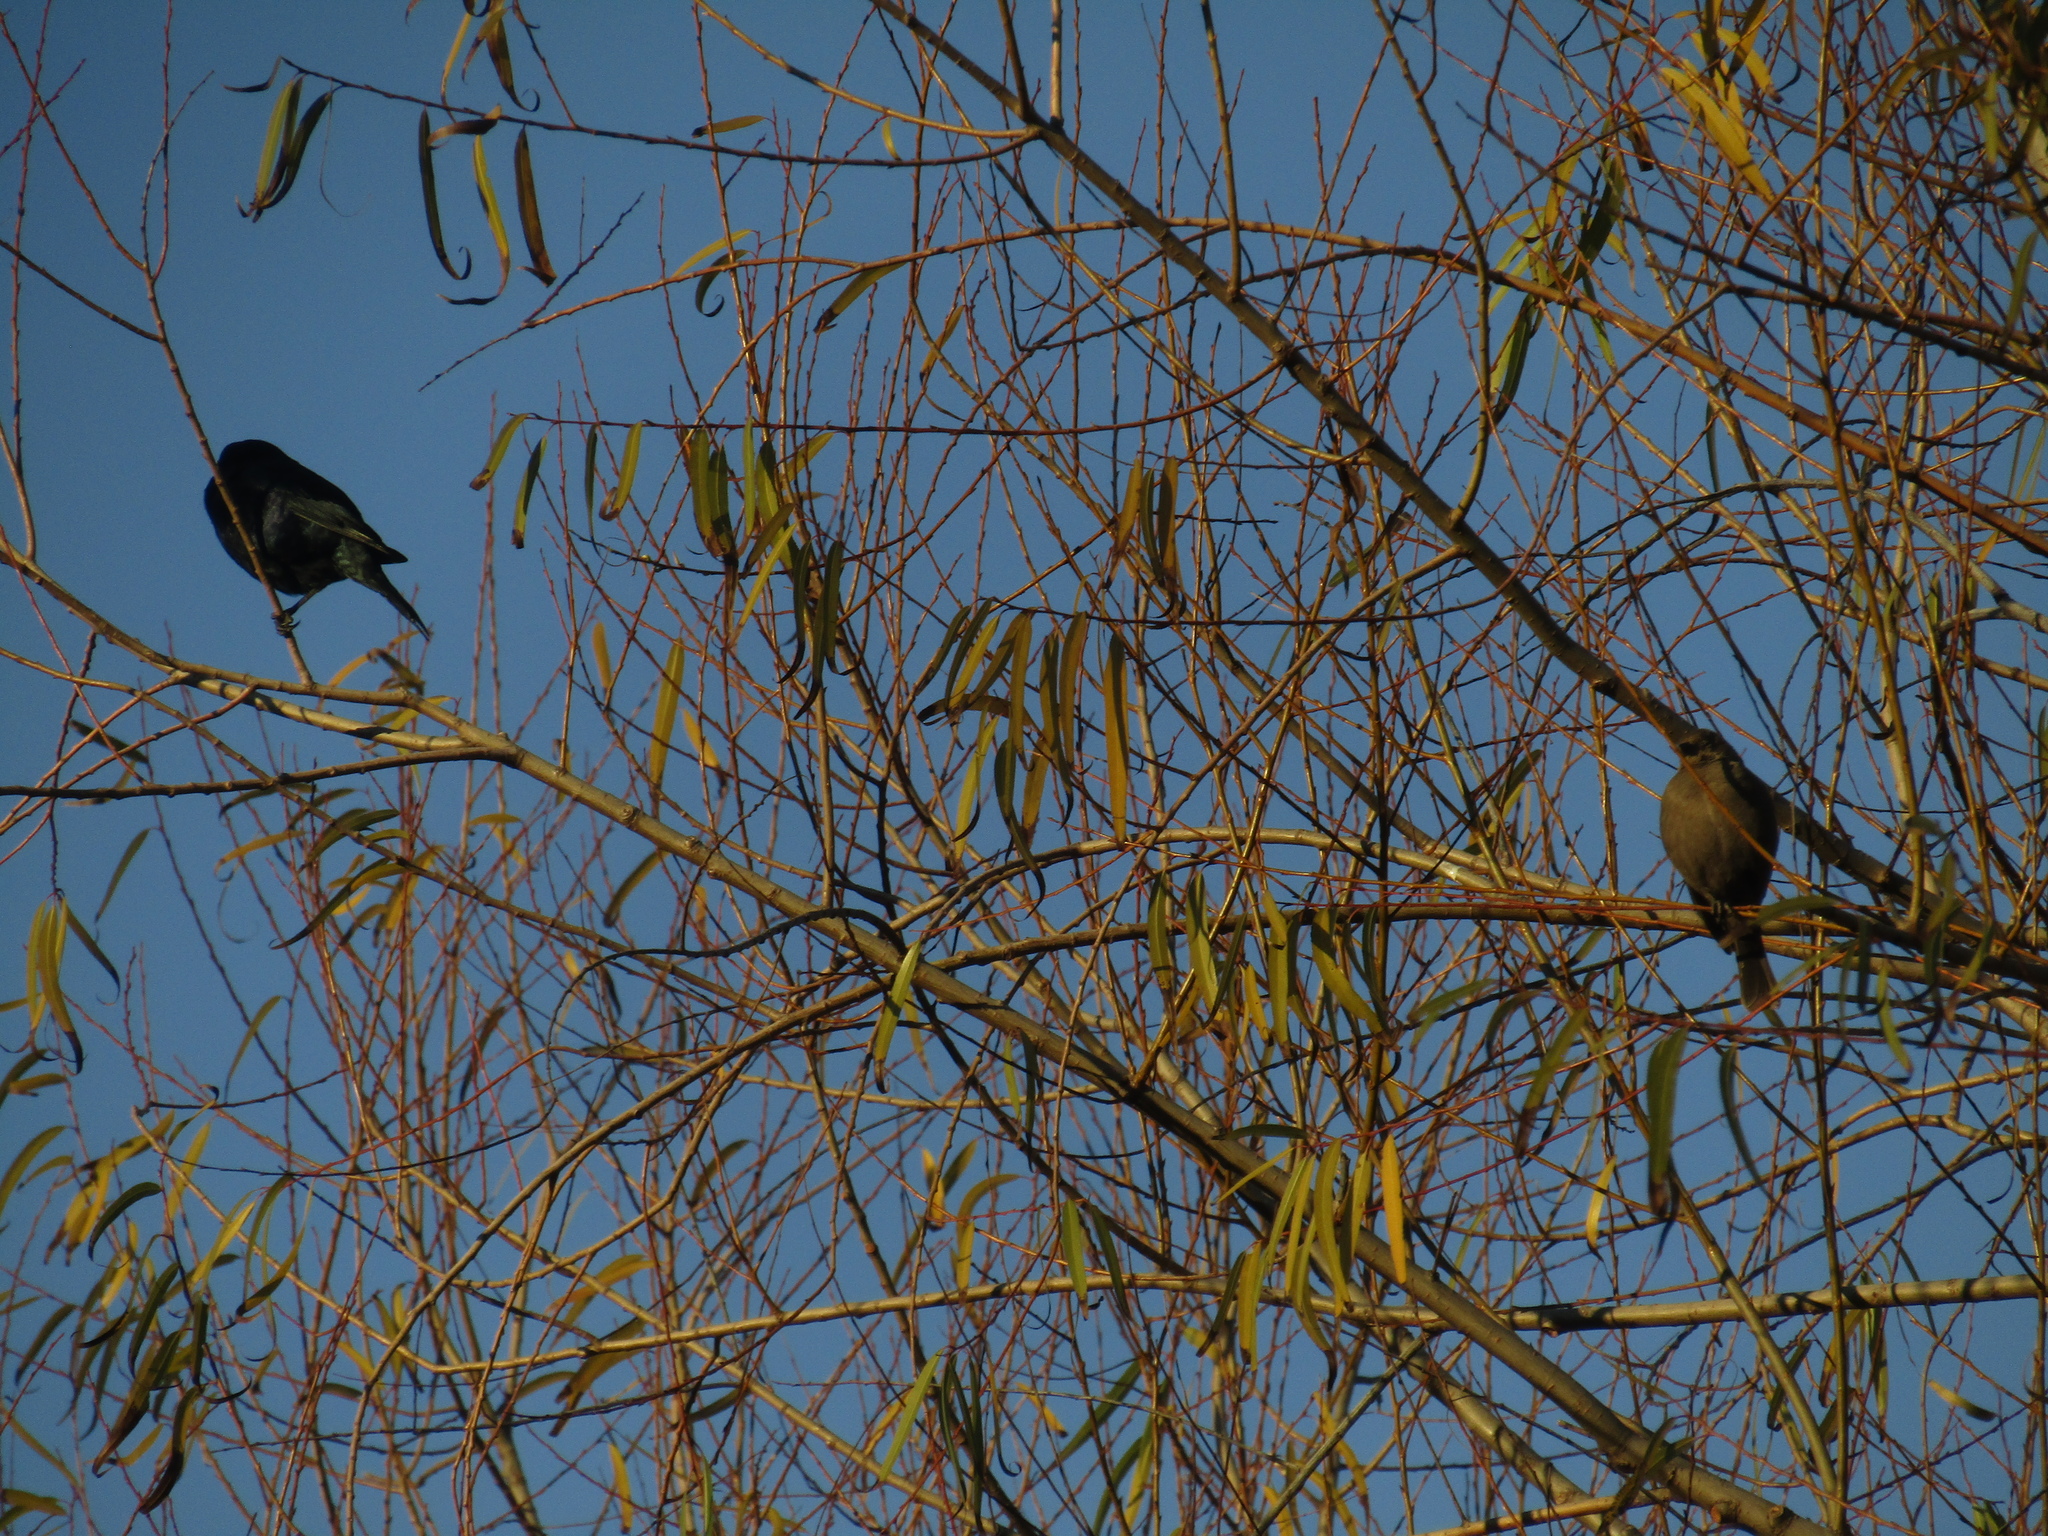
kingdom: Animalia
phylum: Chordata
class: Aves
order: Passeriformes
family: Icteridae
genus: Molothrus
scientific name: Molothrus bonariensis
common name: Shiny cowbird
